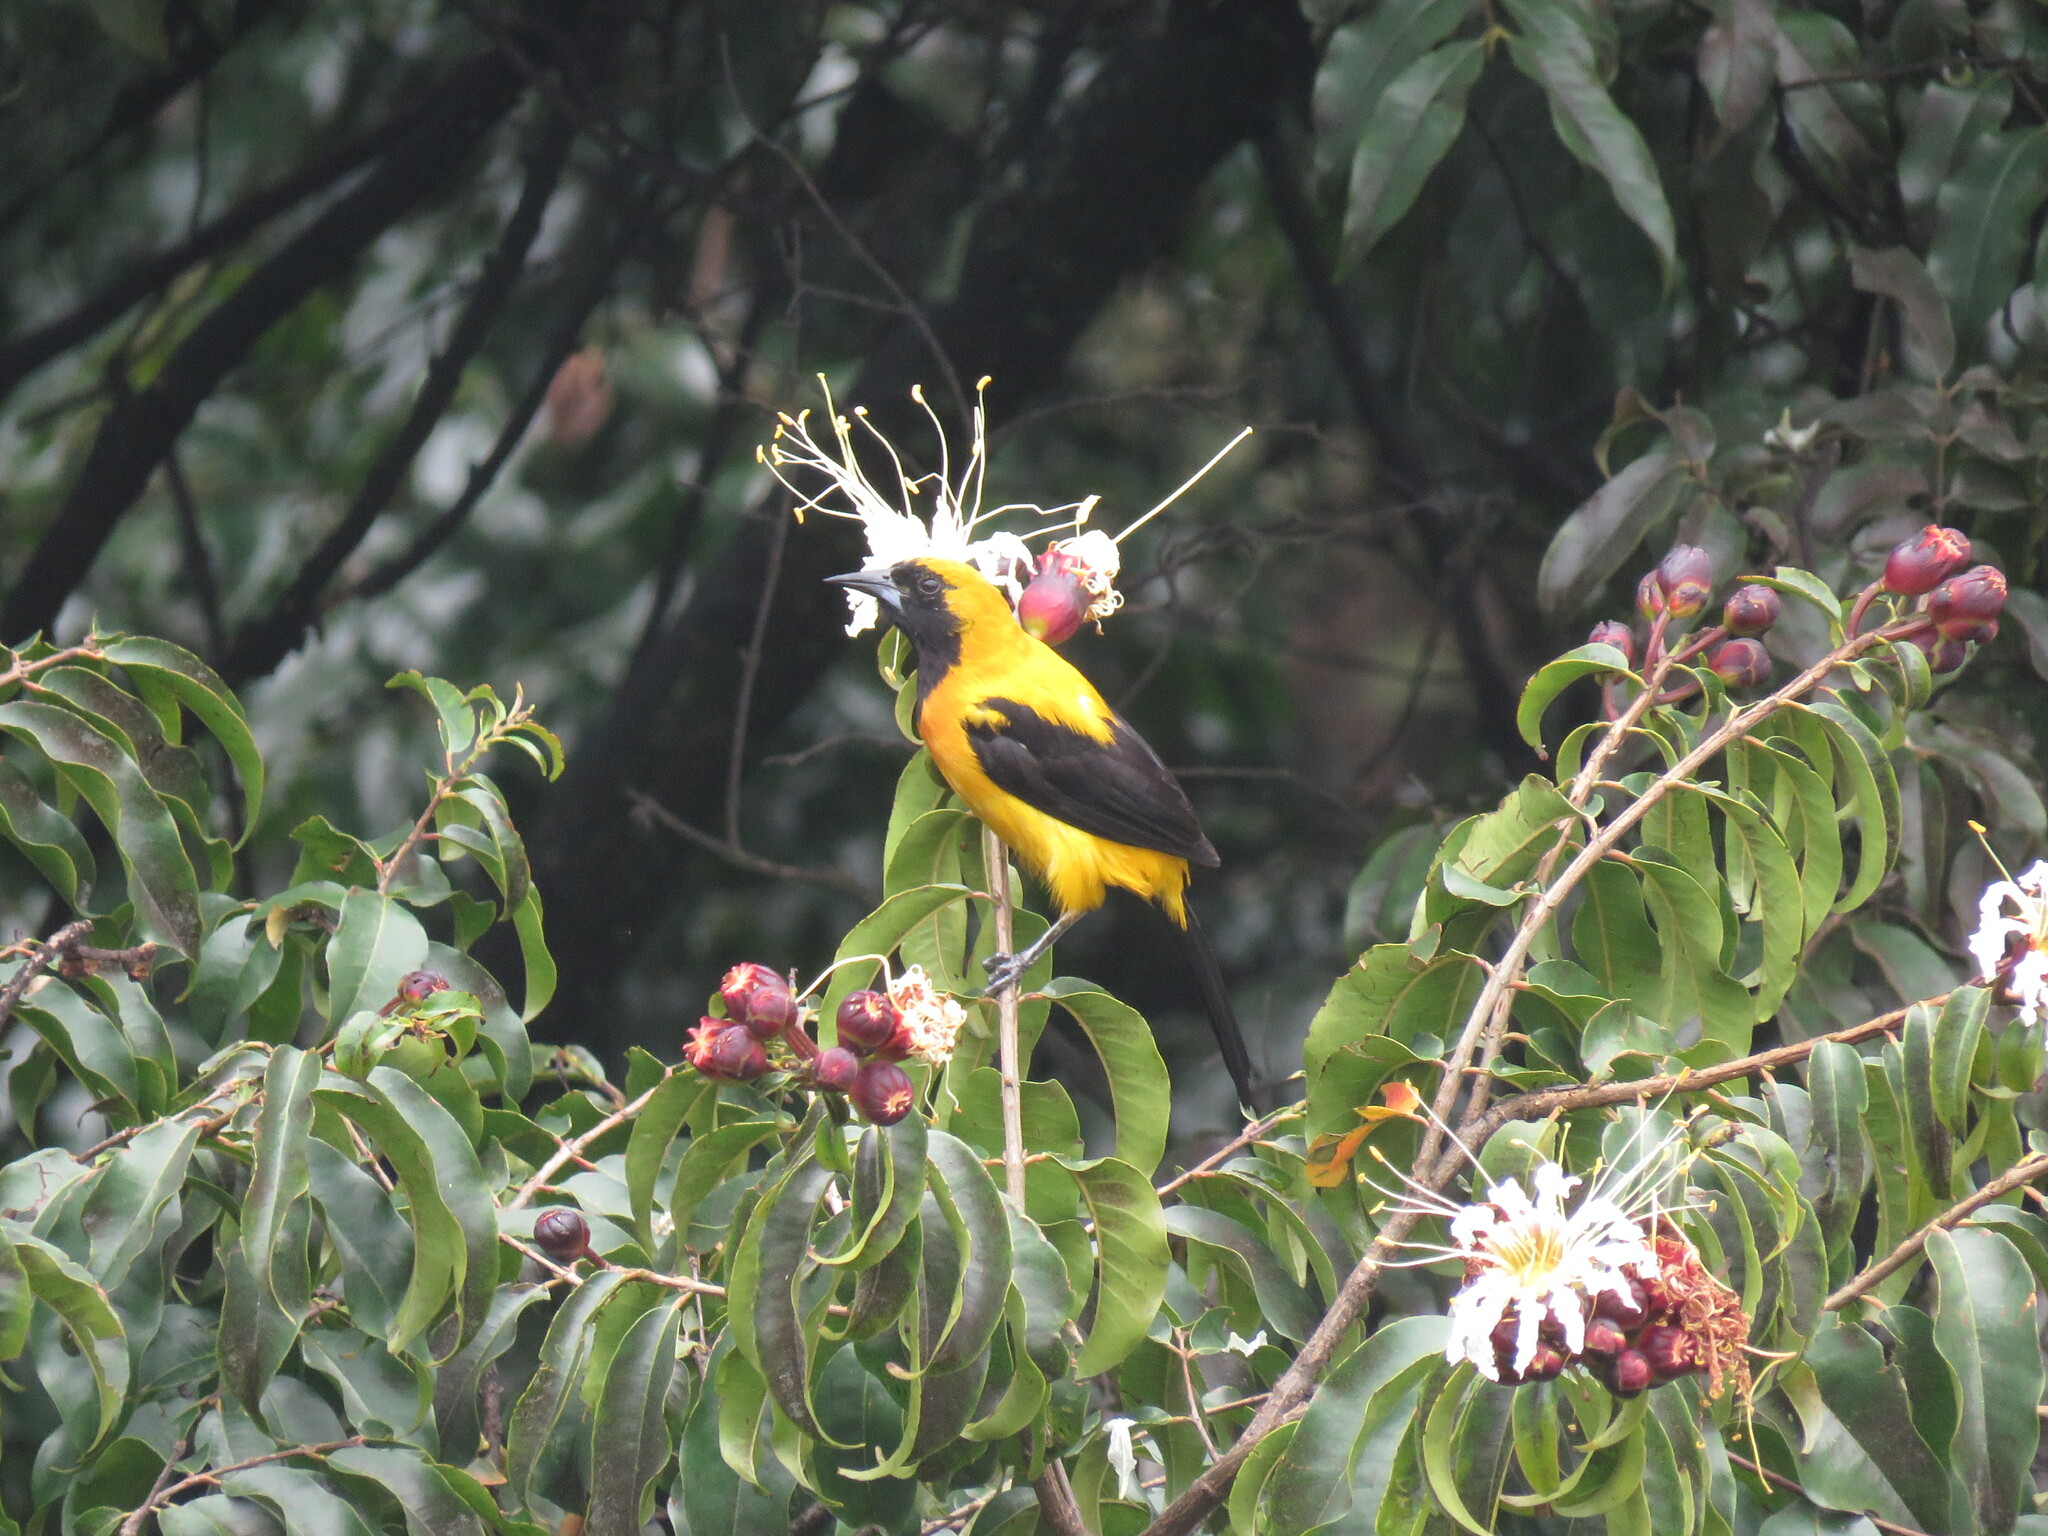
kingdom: Animalia
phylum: Chordata
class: Aves
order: Passeriformes
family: Icteridae
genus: Icterus
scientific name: Icterus chrysater
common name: Yellow-backed oriole
